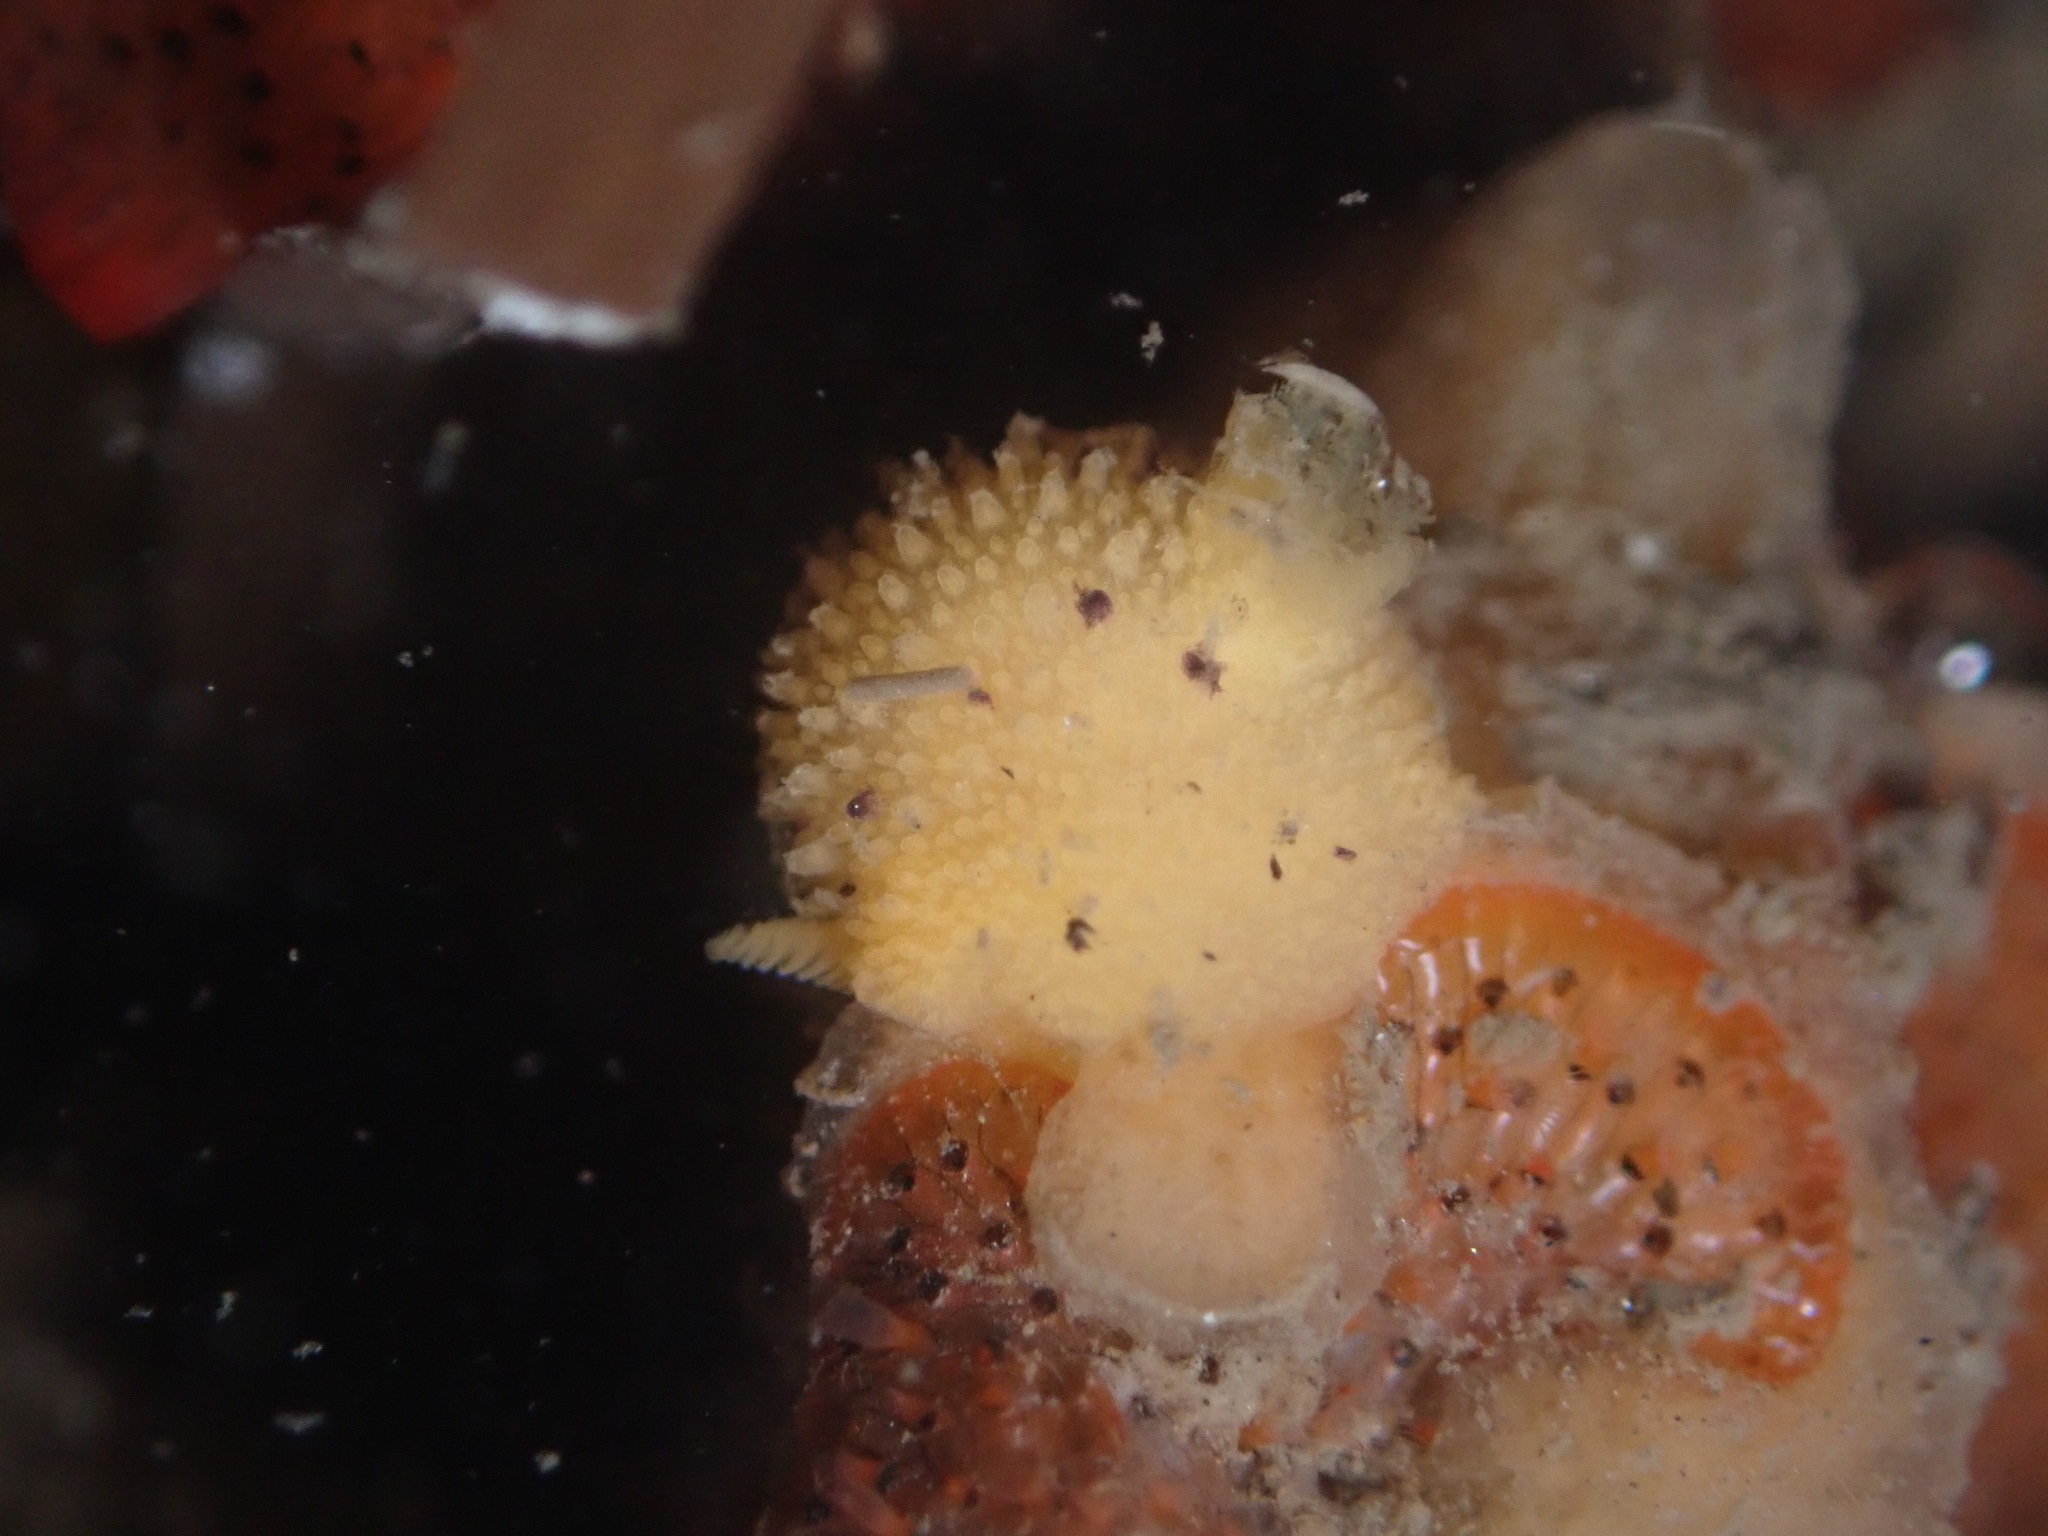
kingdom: Animalia
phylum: Mollusca
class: Gastropoda
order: Nudibranchia
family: Dorididae
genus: Doris
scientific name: Doris montereyensis
